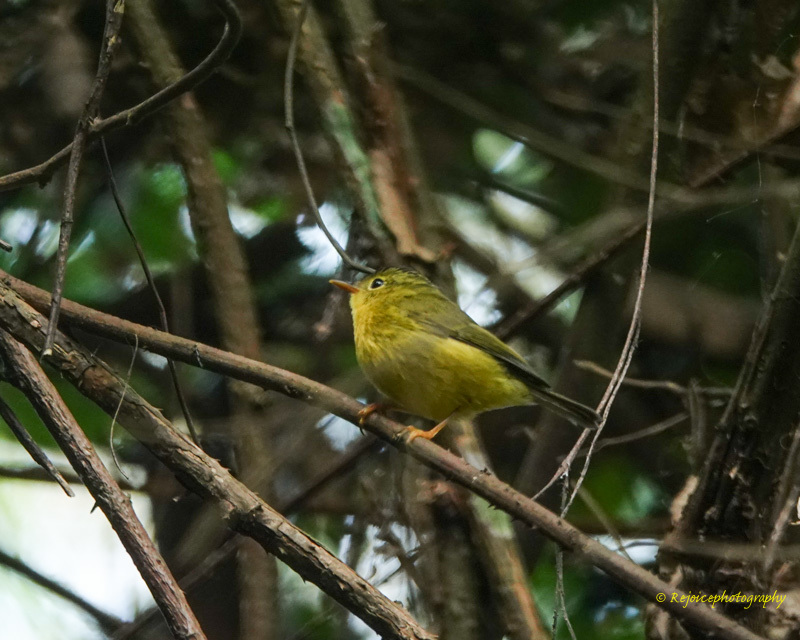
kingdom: Animalia
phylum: Chordata
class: Aves
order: Passeriformes
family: Phylloscopidae
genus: Seicercus
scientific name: Seicercus burkii
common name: Green-crowned warbler
